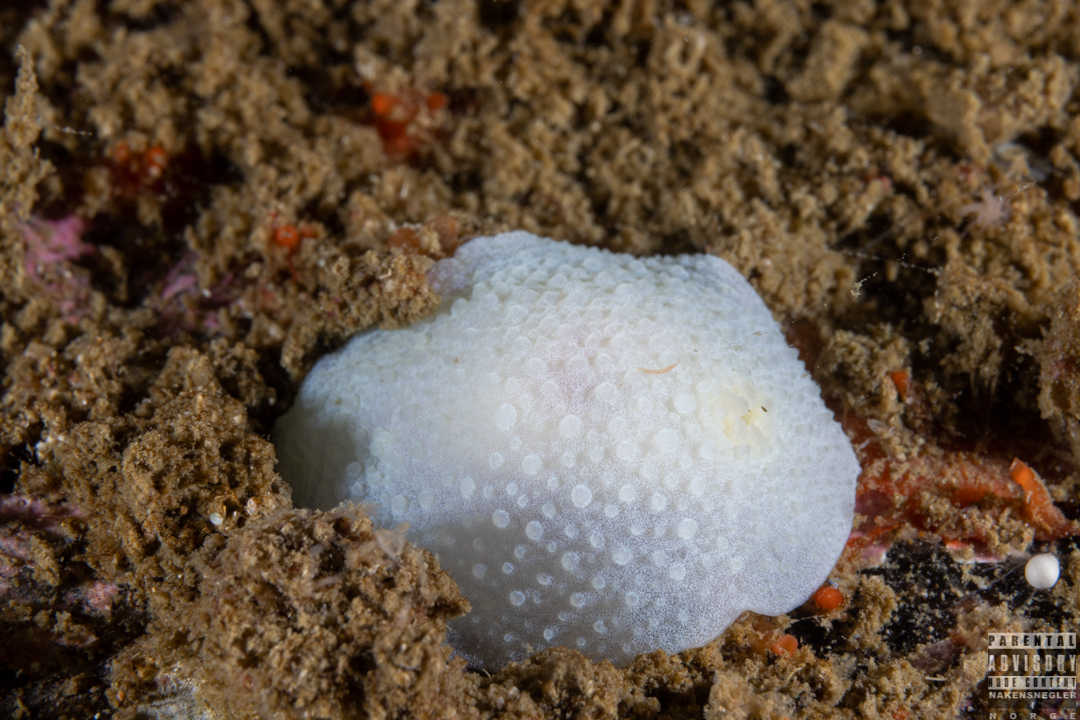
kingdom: Animalia
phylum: Mollusca
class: Gastropoda
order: Nudibranchia
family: Cadlinidae
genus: Aldisa
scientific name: Aldisa zetlandica
